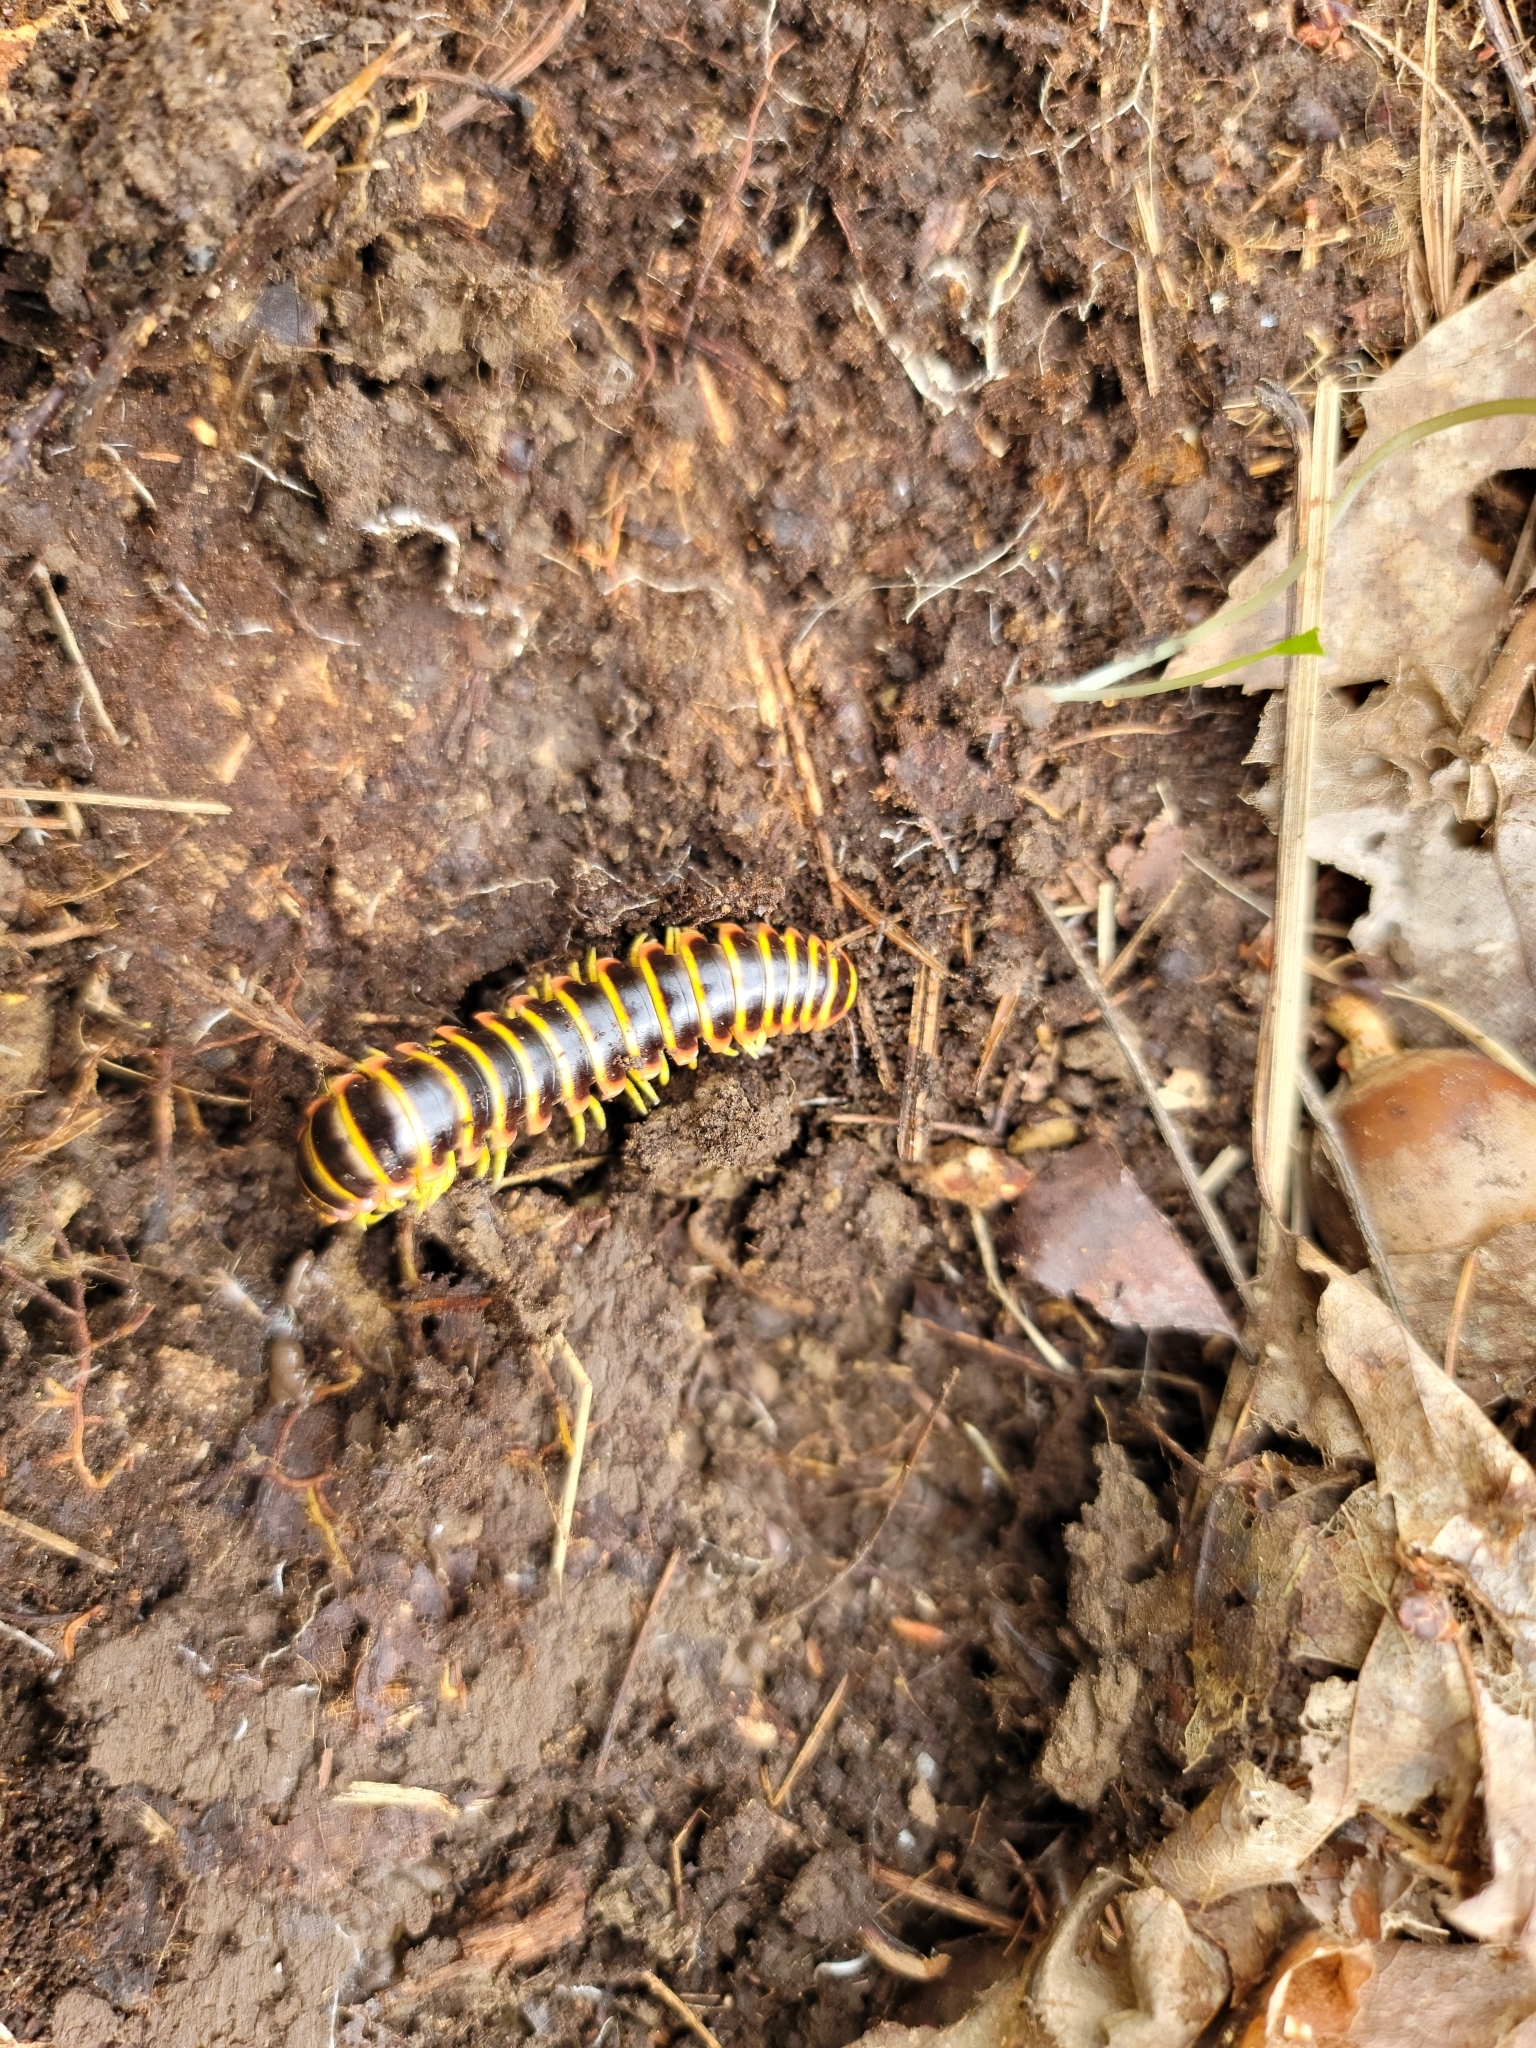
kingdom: Animalia
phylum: Arthropoda
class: Diplopoda
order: Polydesmida
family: Xystodesmidae
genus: Apheloria
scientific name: Apheloria virginiensis
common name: Black-and-gold flat millipede
